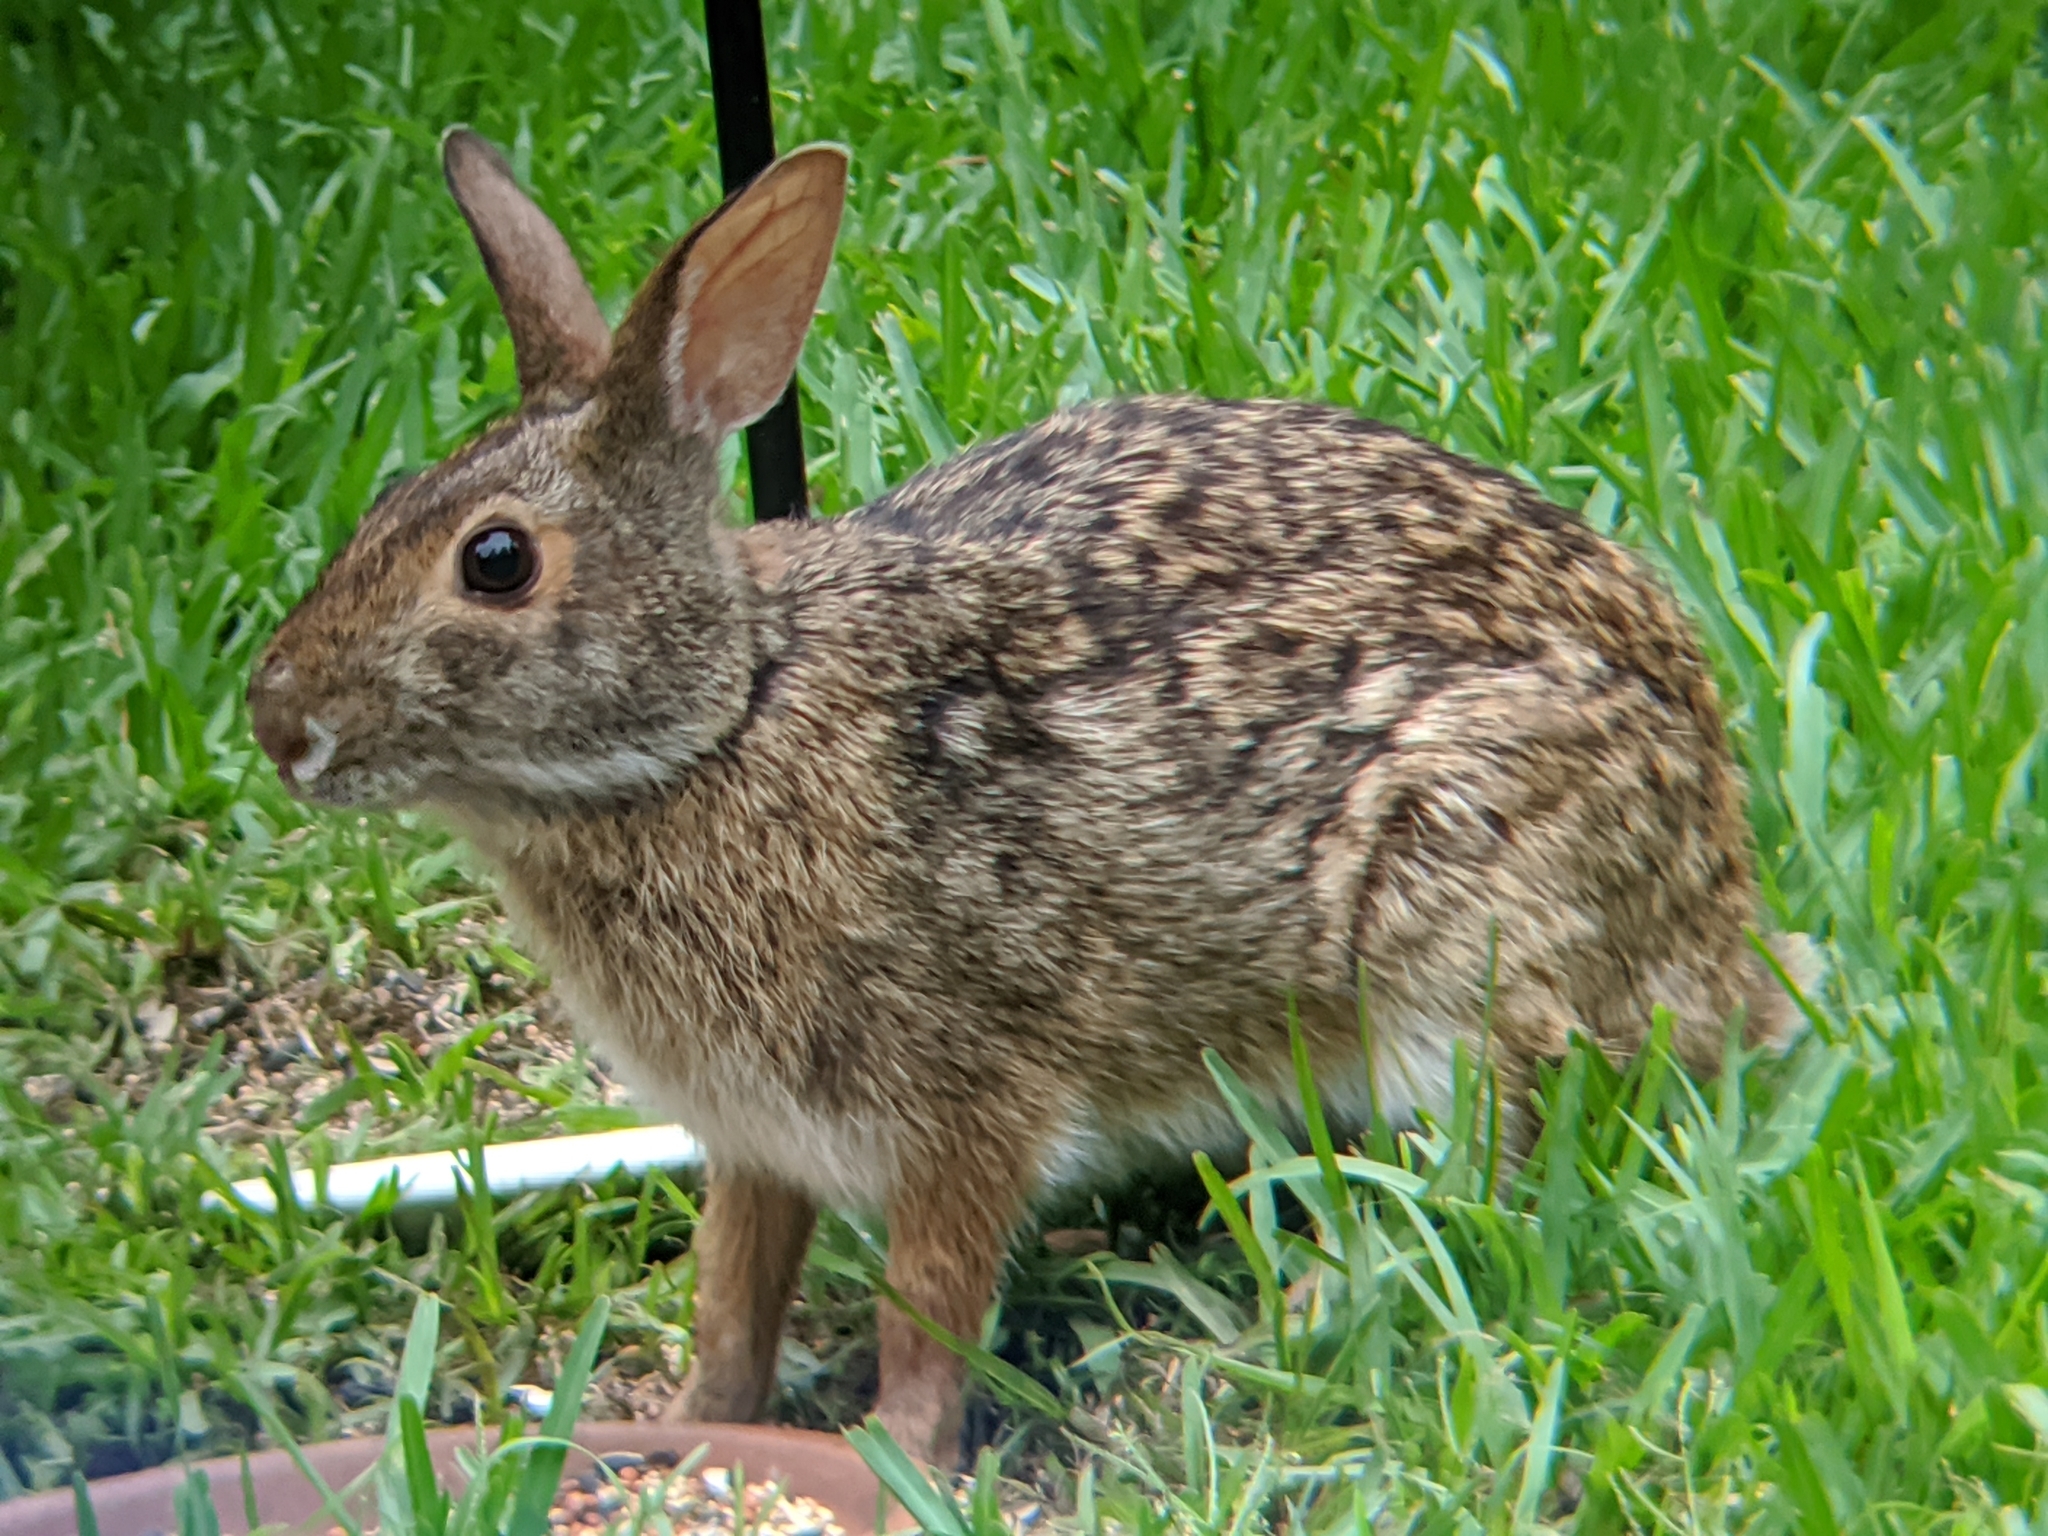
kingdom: Animalia
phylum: Chordata
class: Mammalia
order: Lagomorpha
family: Leporidae
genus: Sylvilagus
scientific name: Sylvilagus aquaticus
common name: Swamp rabbit
